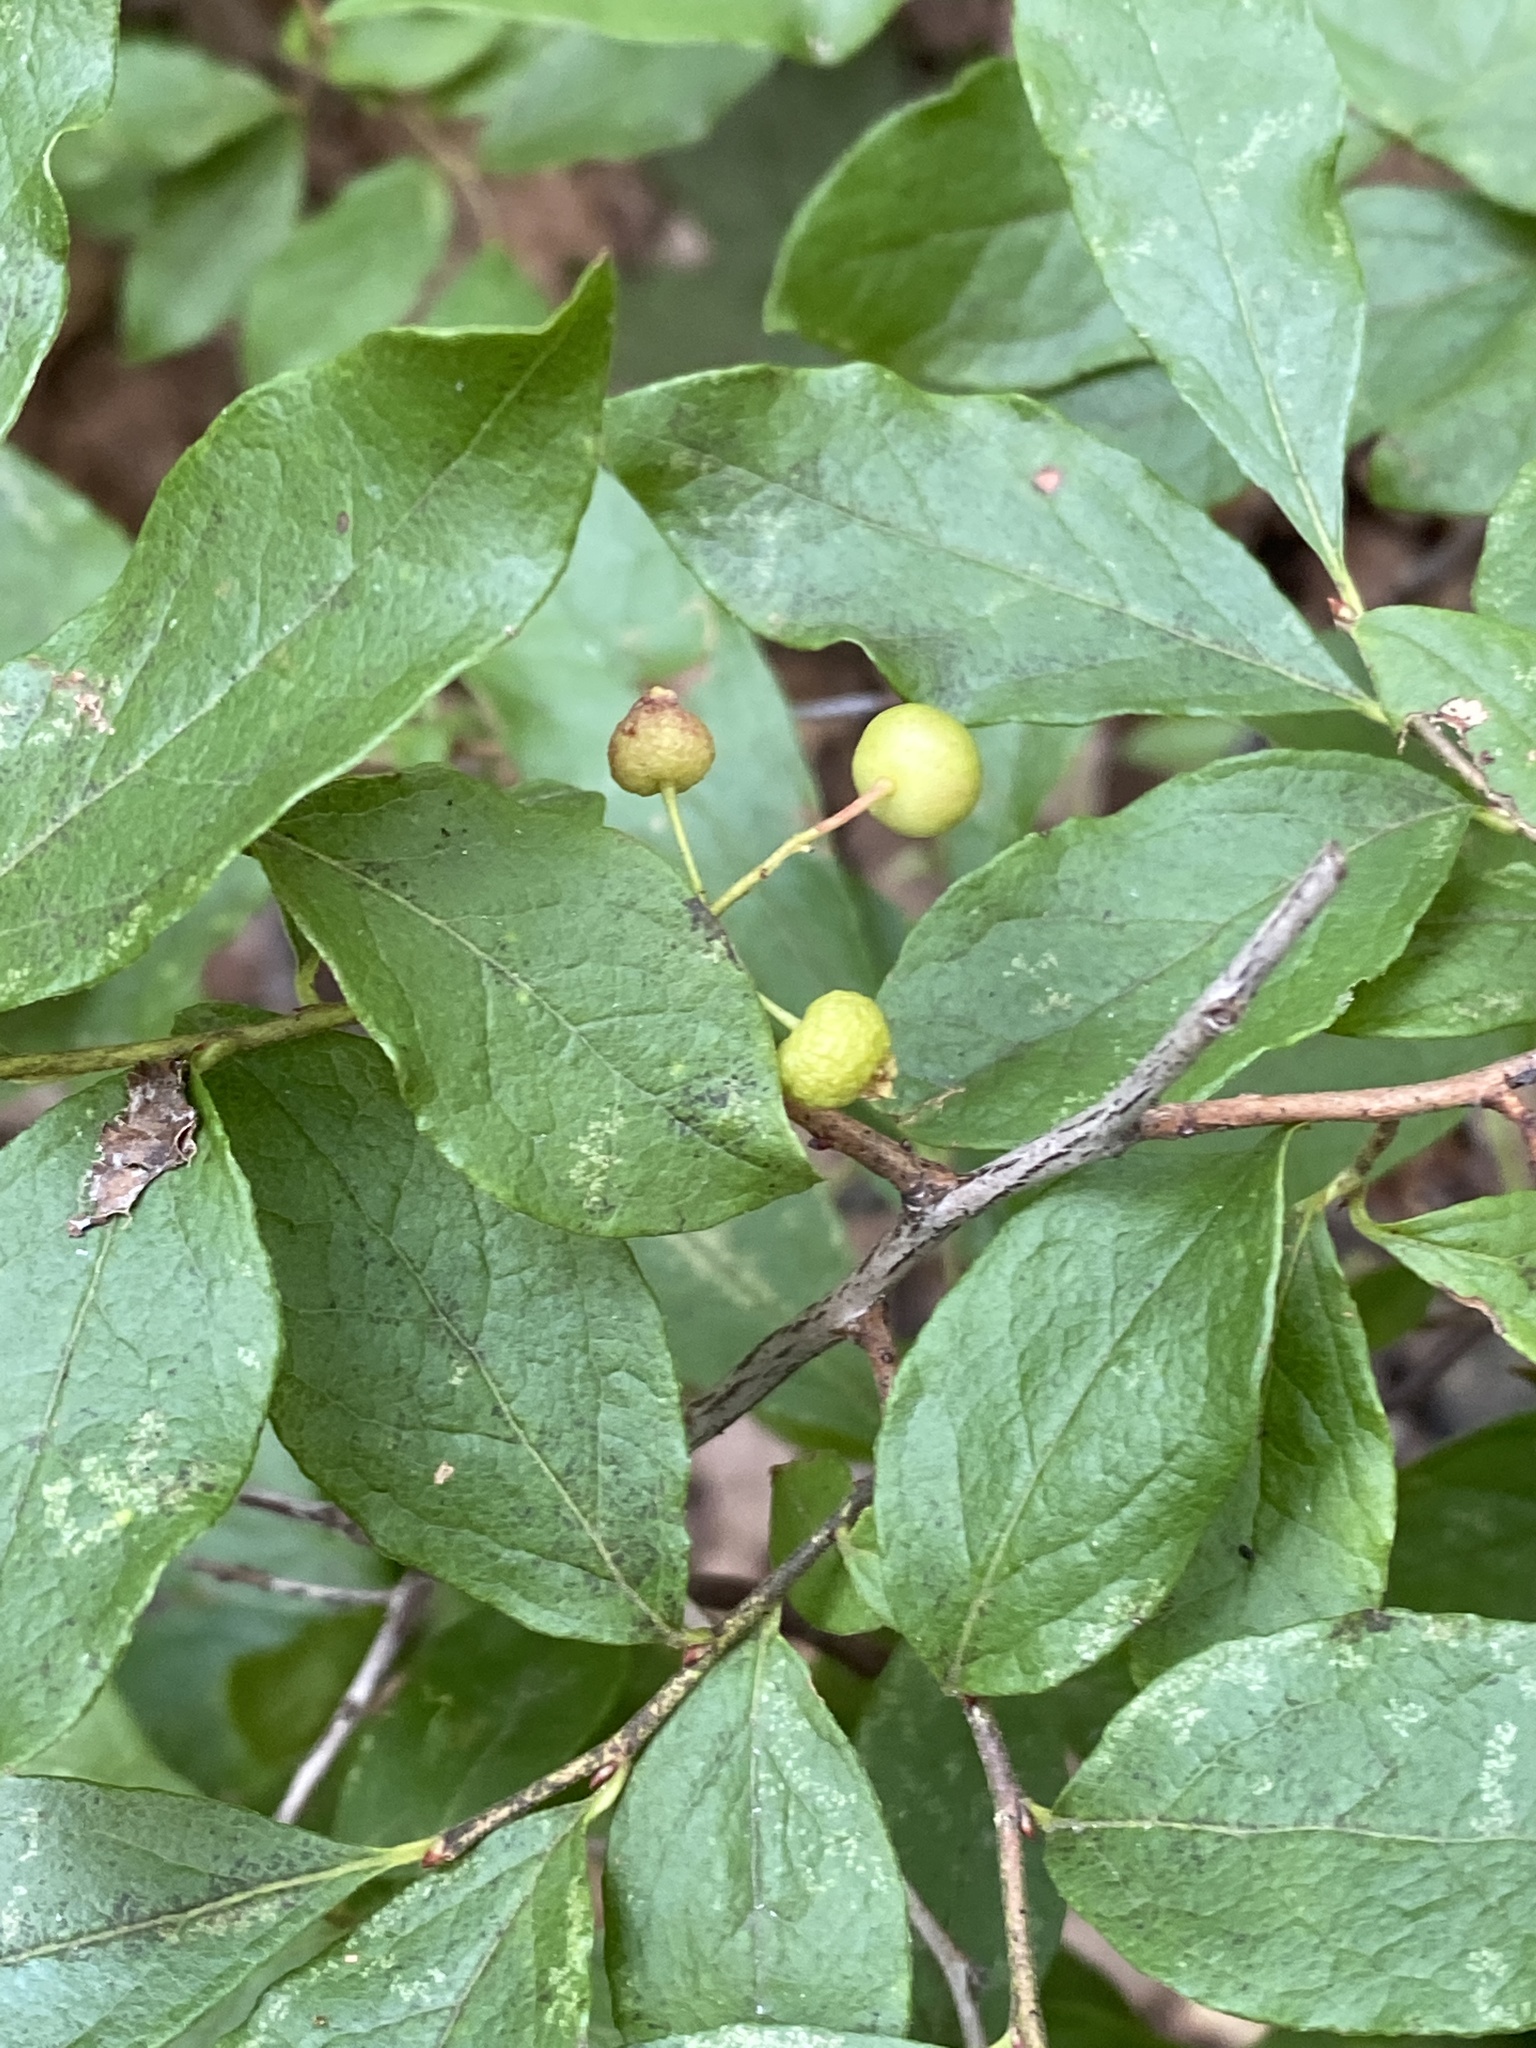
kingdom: Plantae
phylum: Tracheophyta
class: Magnoliopsida
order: Ericales
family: Ericaceae
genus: Gaylussacia
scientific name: Gaylussacia baccata
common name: Black huckleberry
